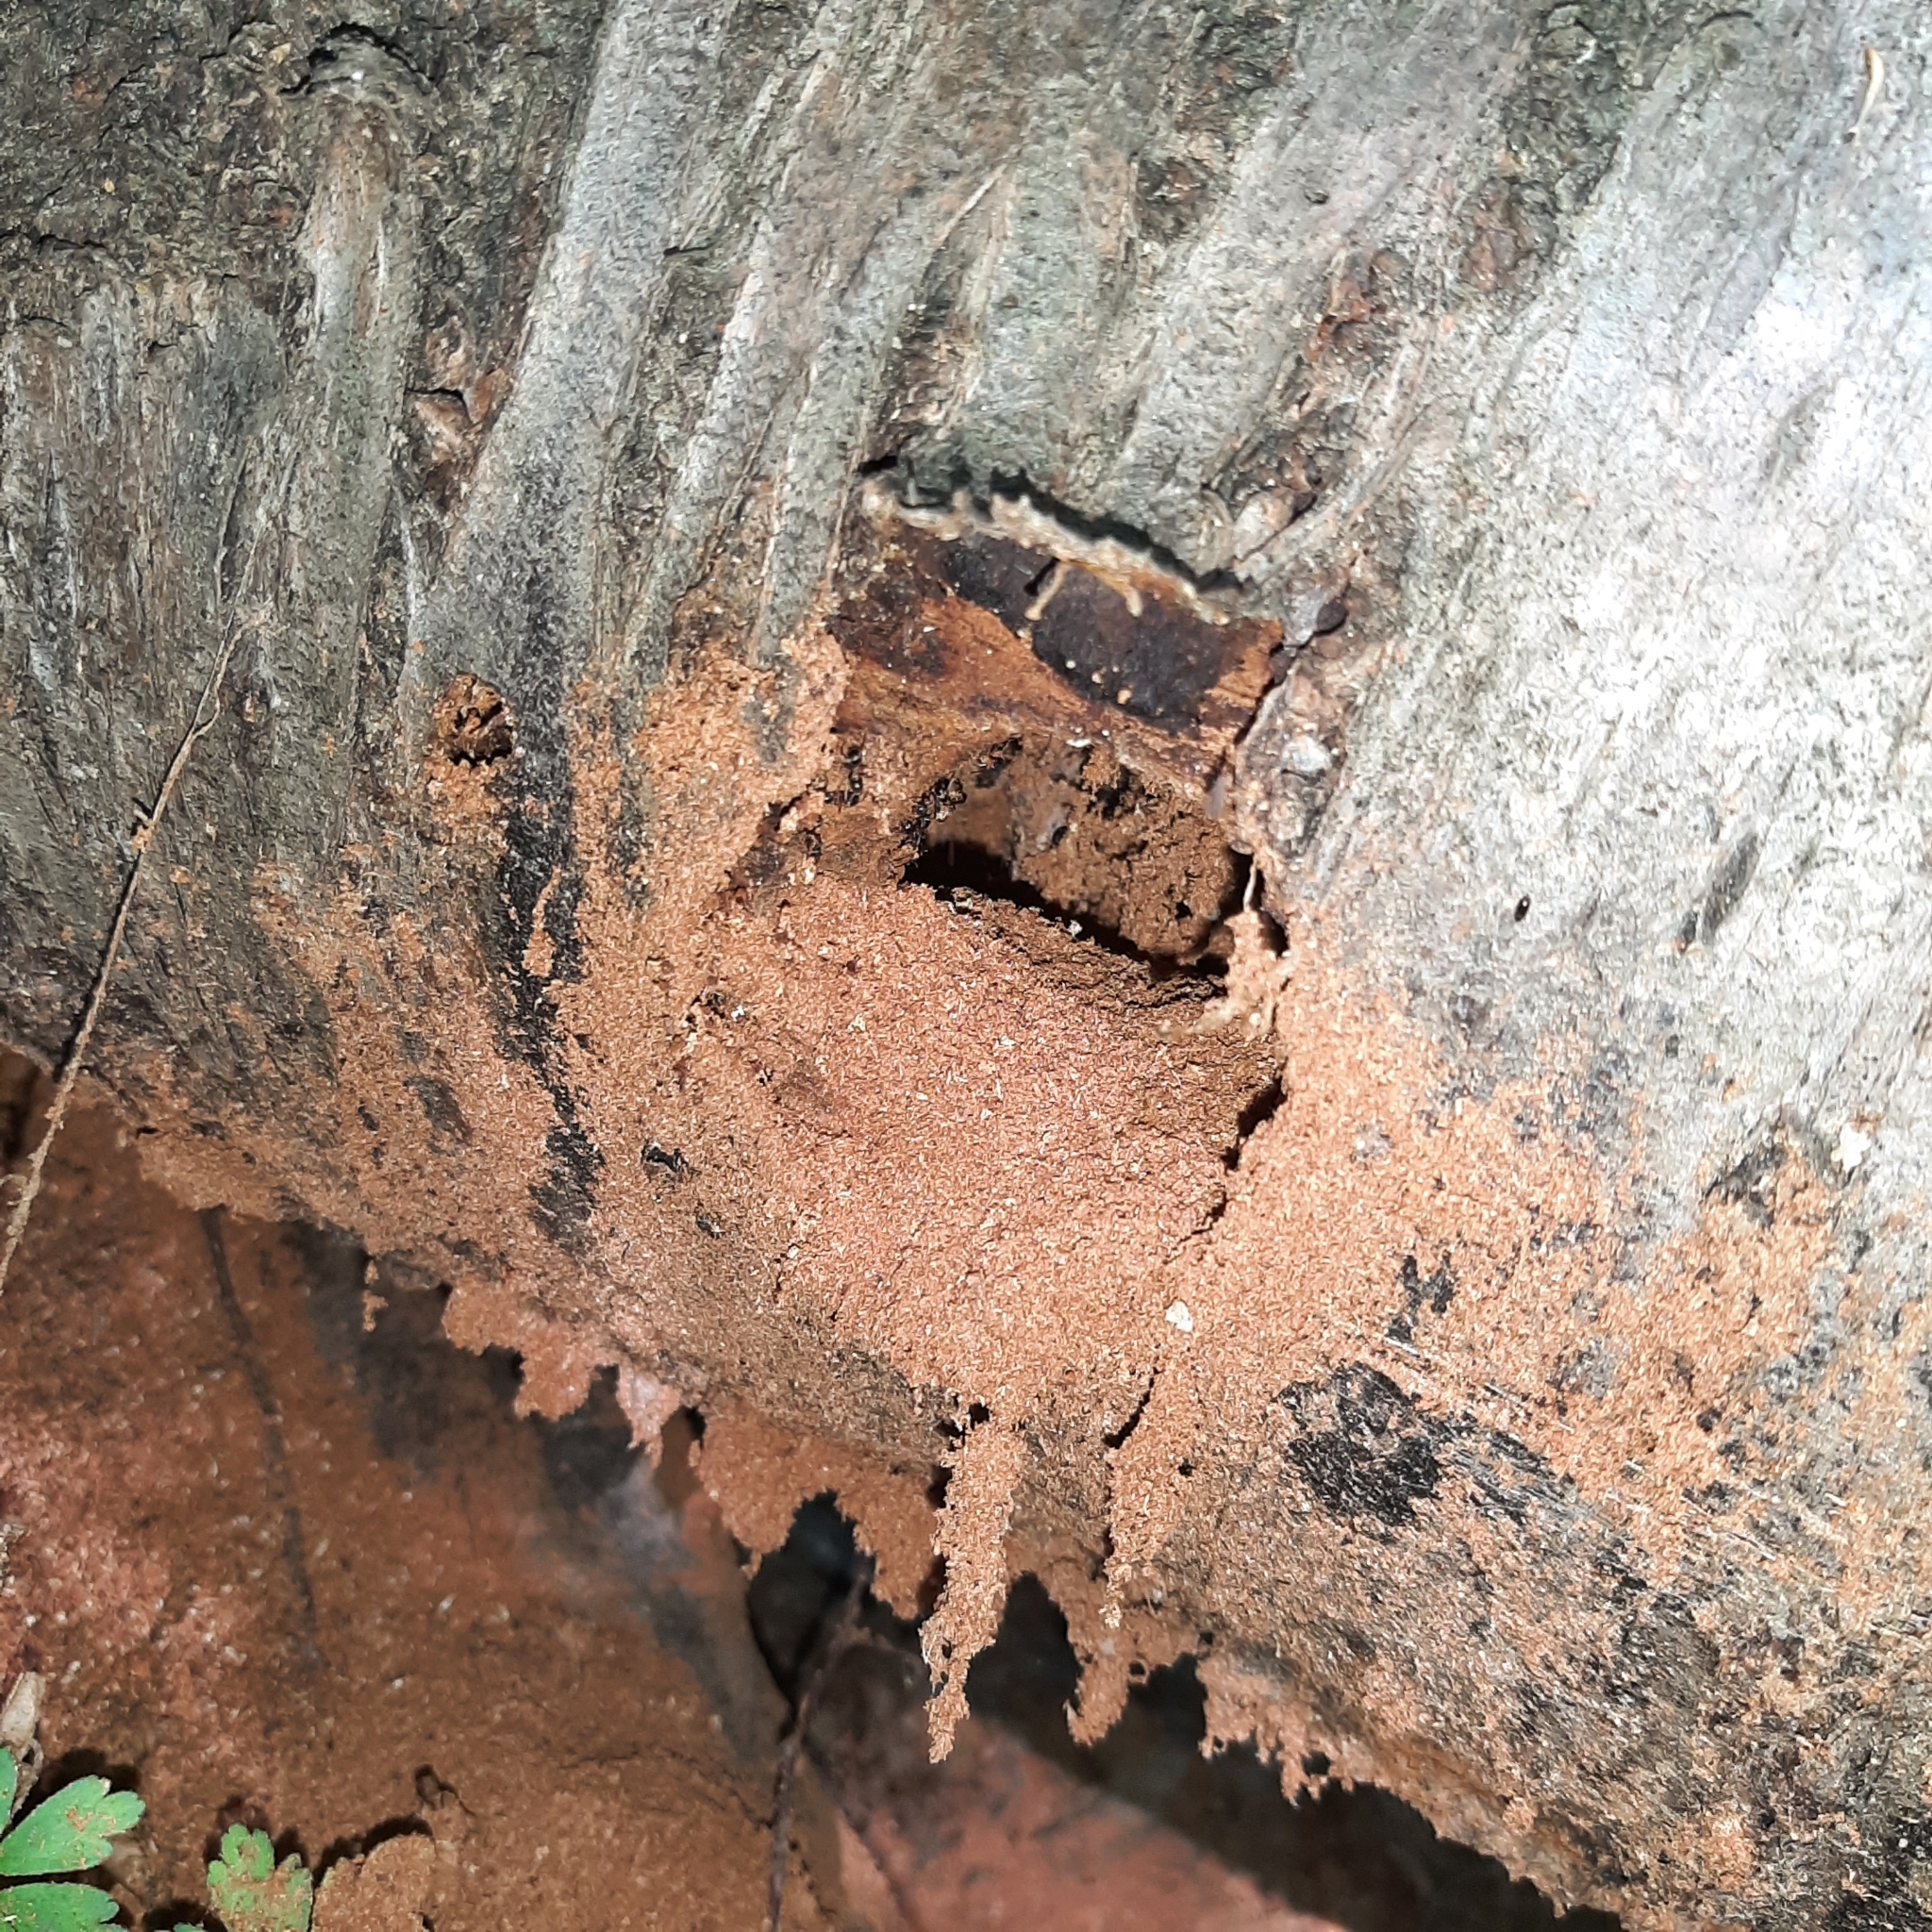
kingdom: Animalia
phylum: Arthropoda
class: Insecta
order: Hymenoptera
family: Formicidae
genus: Lasius
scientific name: Lasius
